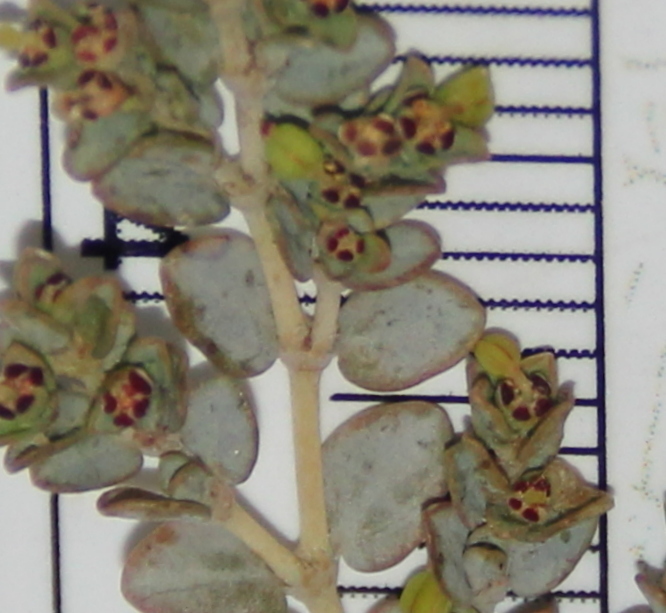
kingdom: Plantae
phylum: Tracheophyta
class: Magnoliopsida
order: Malpighiales
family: Euphorbiaceae
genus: Euphorbia
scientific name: Euphorbia polycarpa
